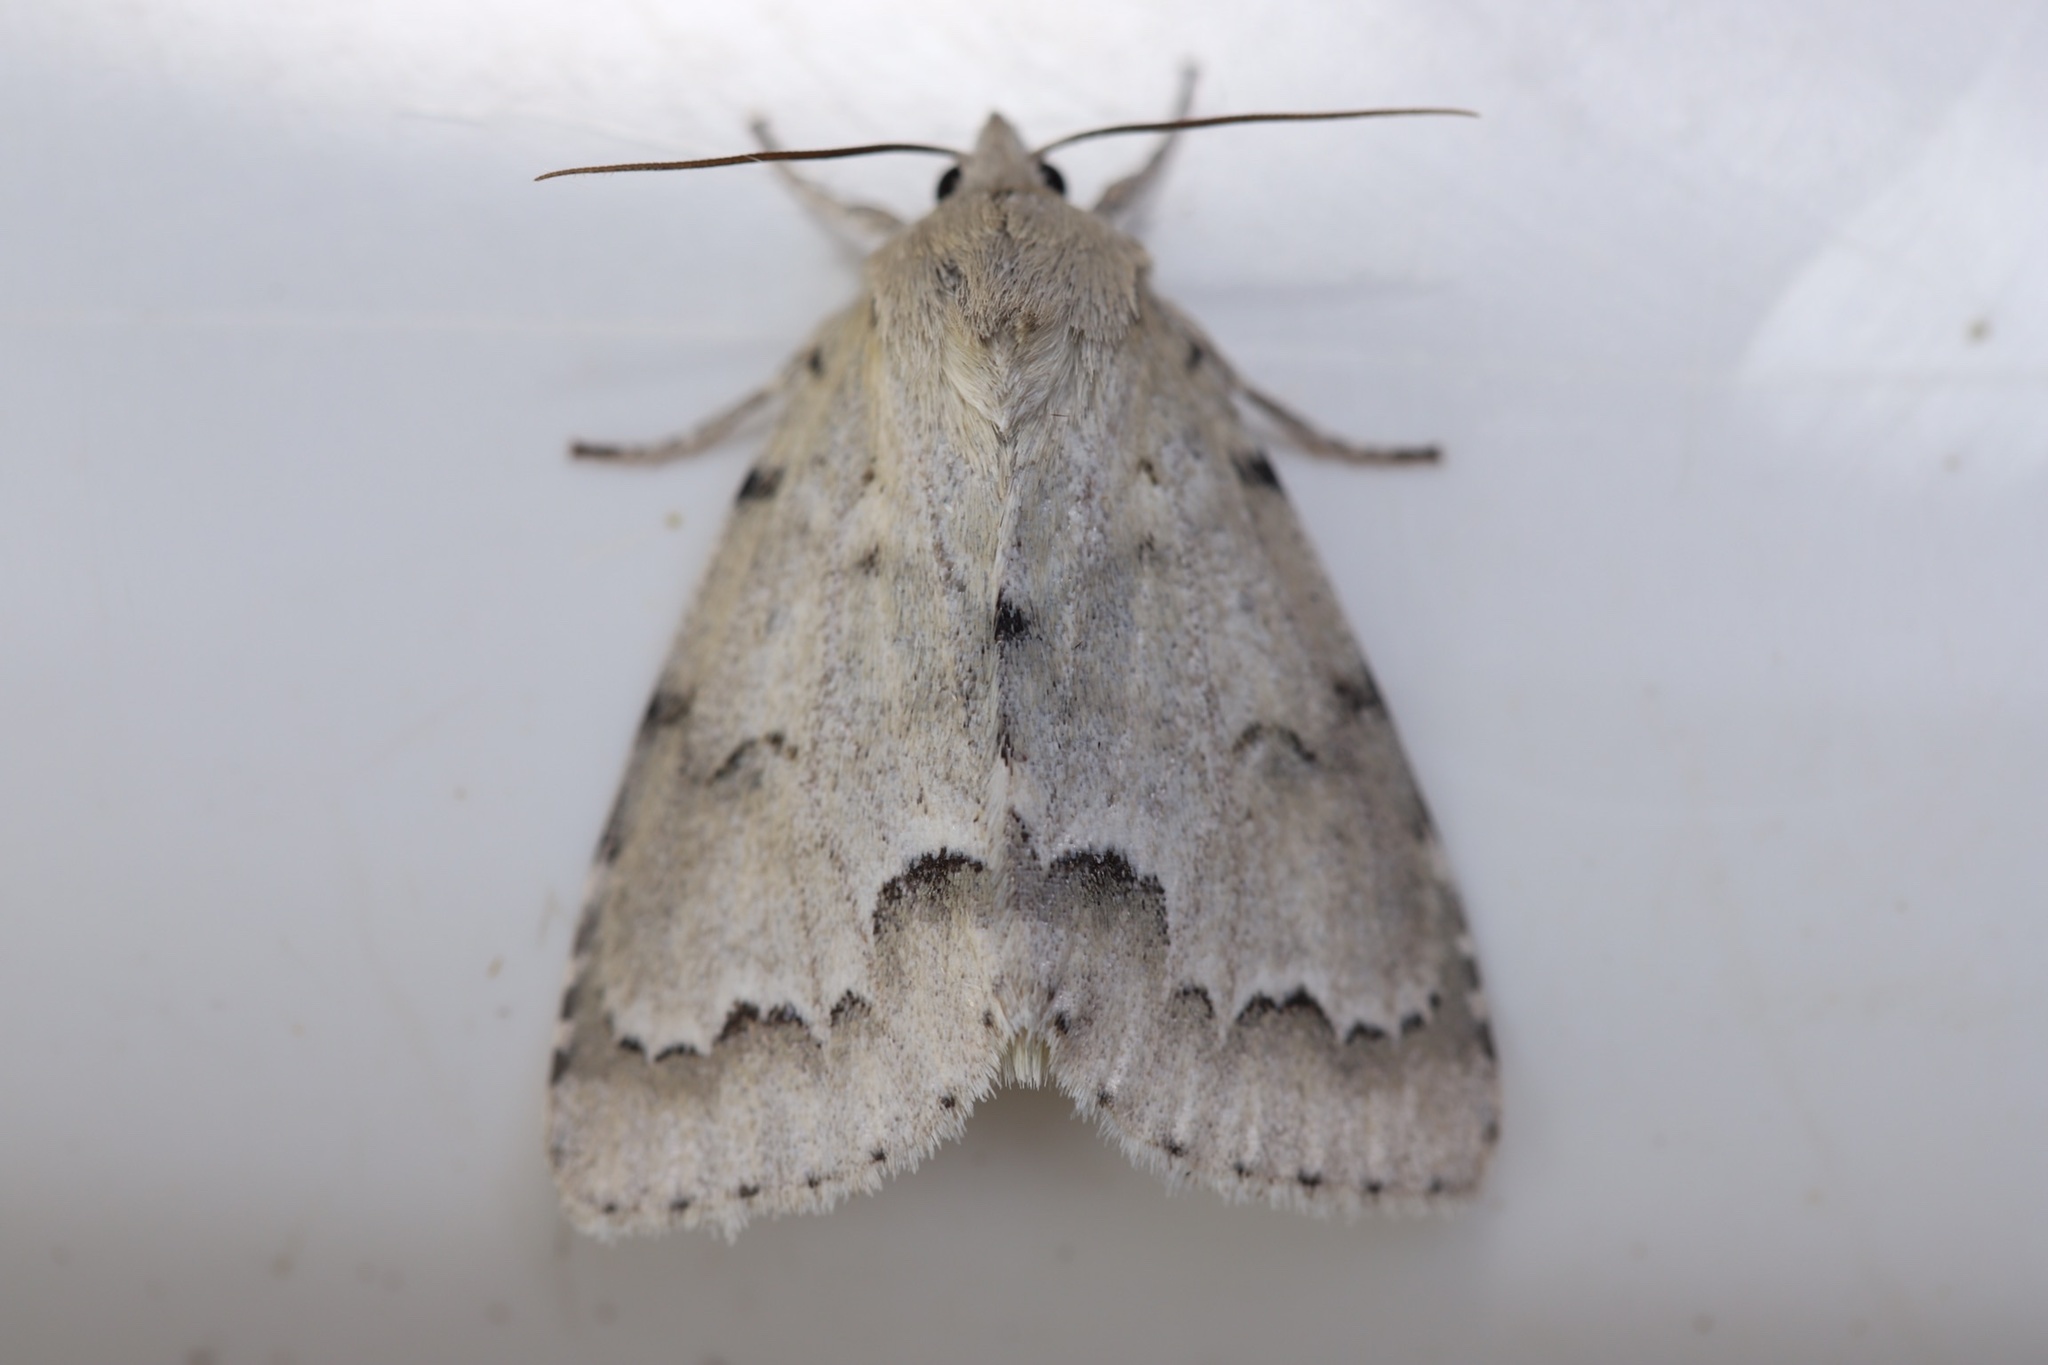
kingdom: Animalia
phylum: Arthropoda
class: Insecta
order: Lepidoptera
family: Noctuidae
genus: Acronicta
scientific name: Acronicta innotata
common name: Unmarked dagger
